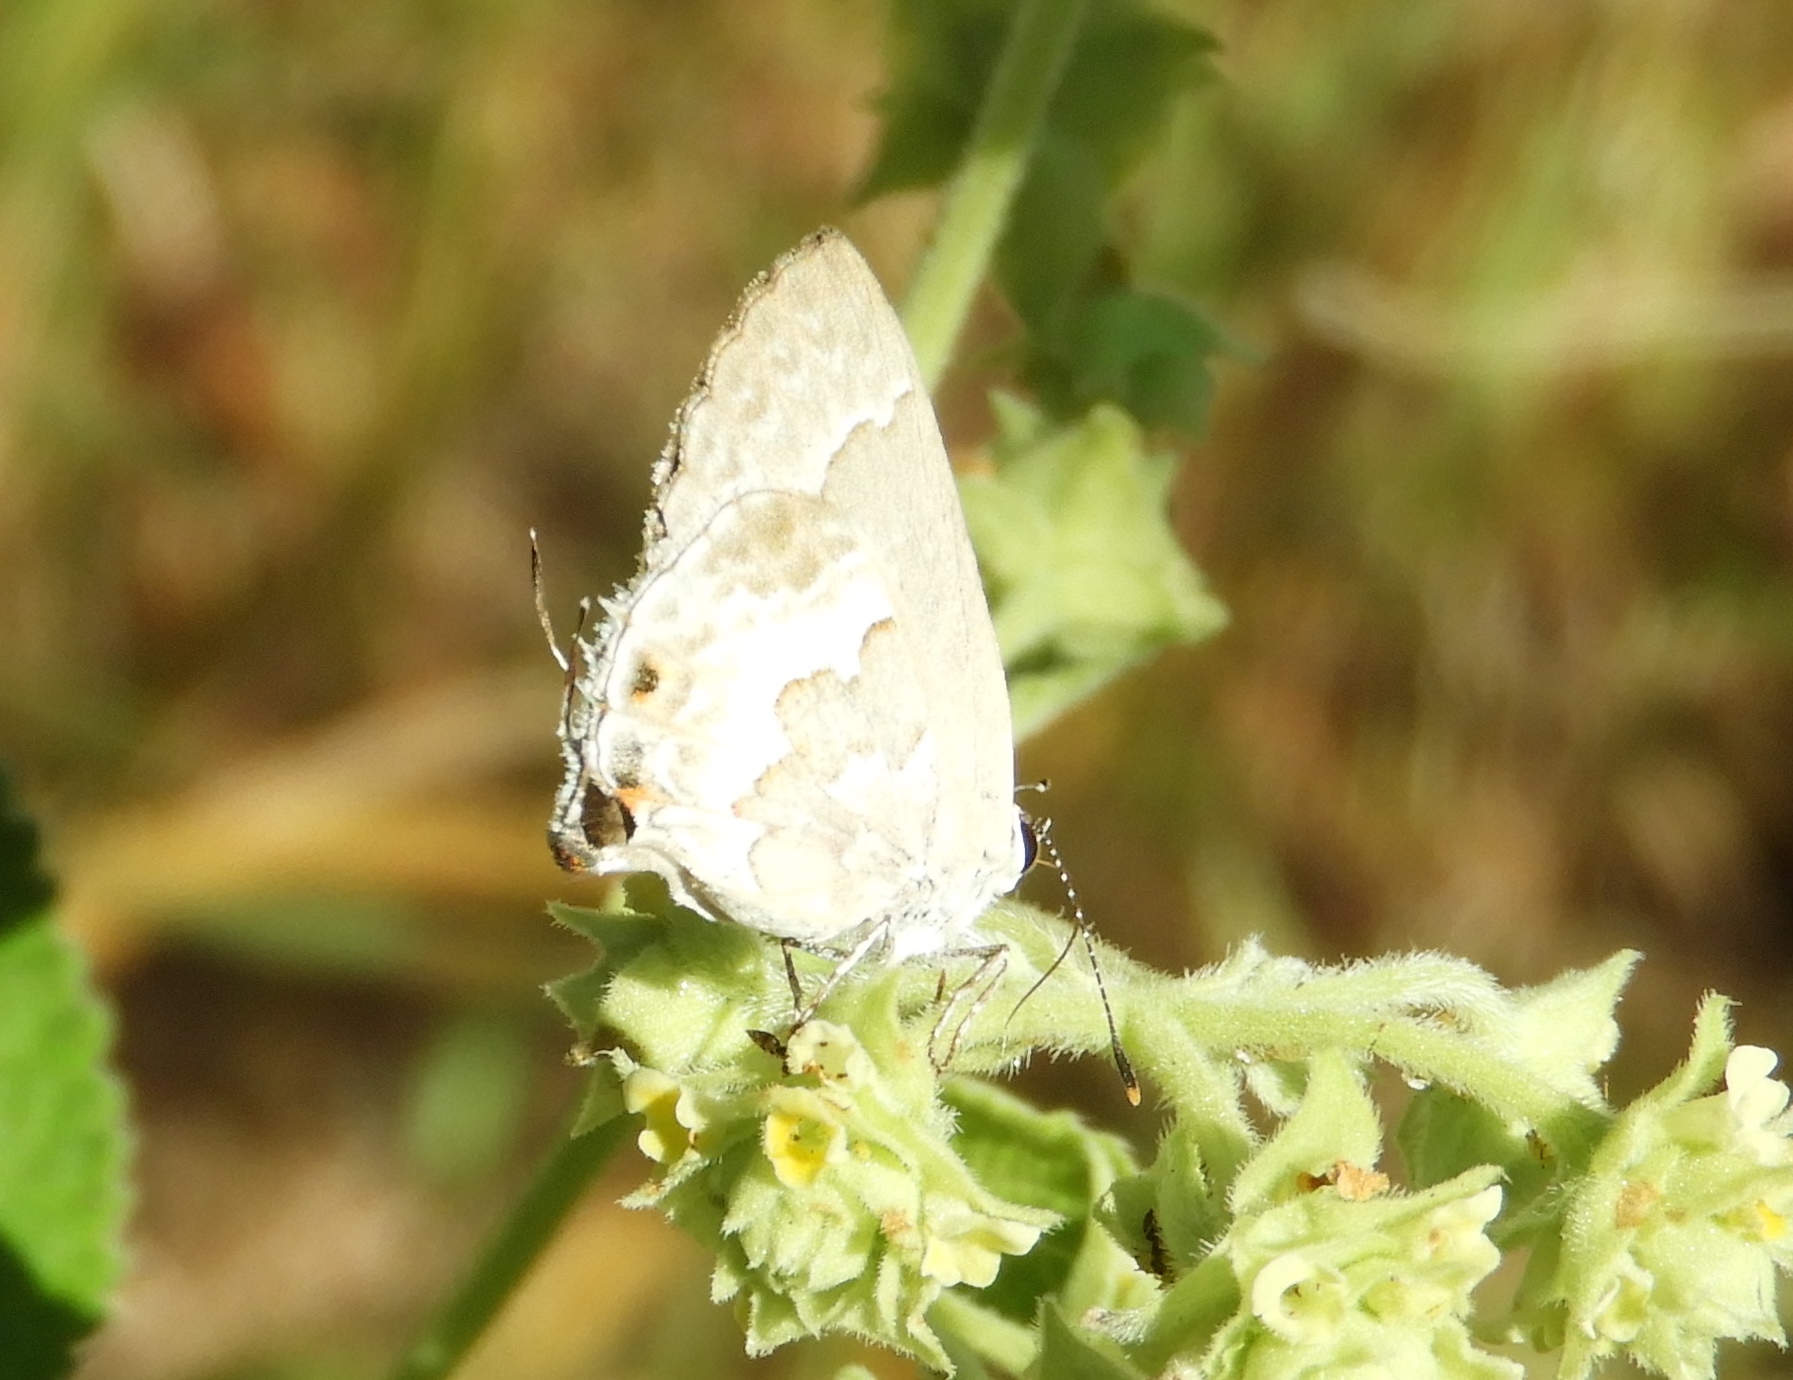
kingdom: Animalia
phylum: Arthropoda
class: Insecta
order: Lepidoptera
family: Lycaenidae
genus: Strymon
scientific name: Strymon albata
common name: White scrub-hairstreak
